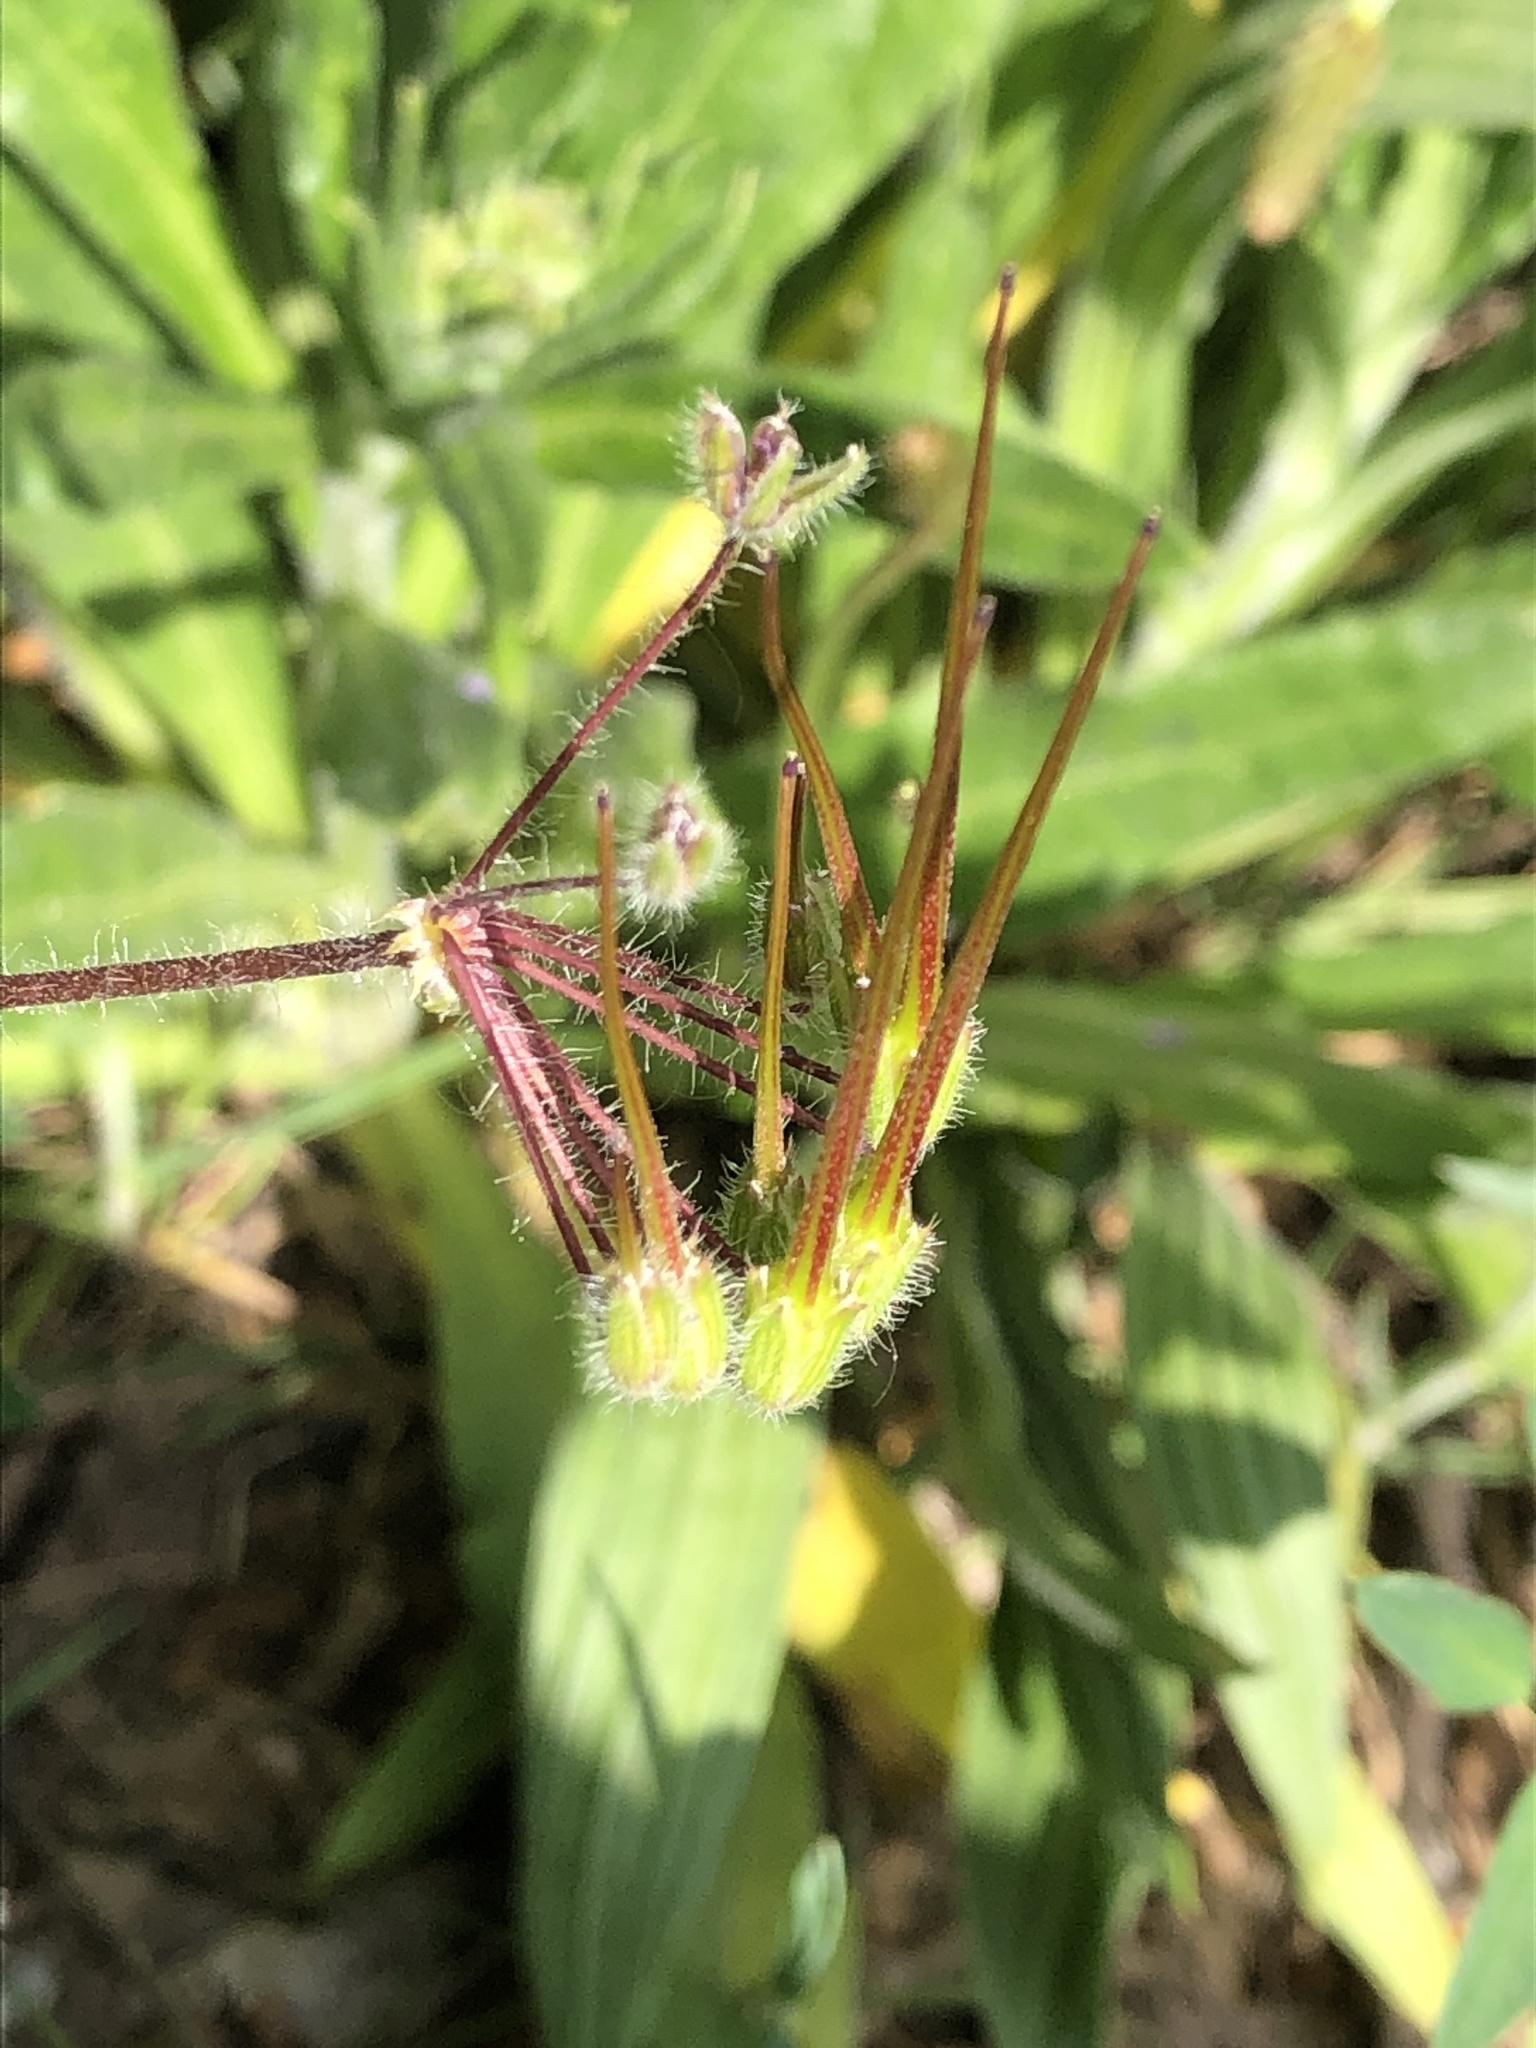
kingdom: Plantae
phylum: Tracheophyta
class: Magnoliopsida
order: Geraniales
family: Geraniaceae
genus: Erodium
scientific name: Erodium cicutarium
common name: Common stork's-bill
